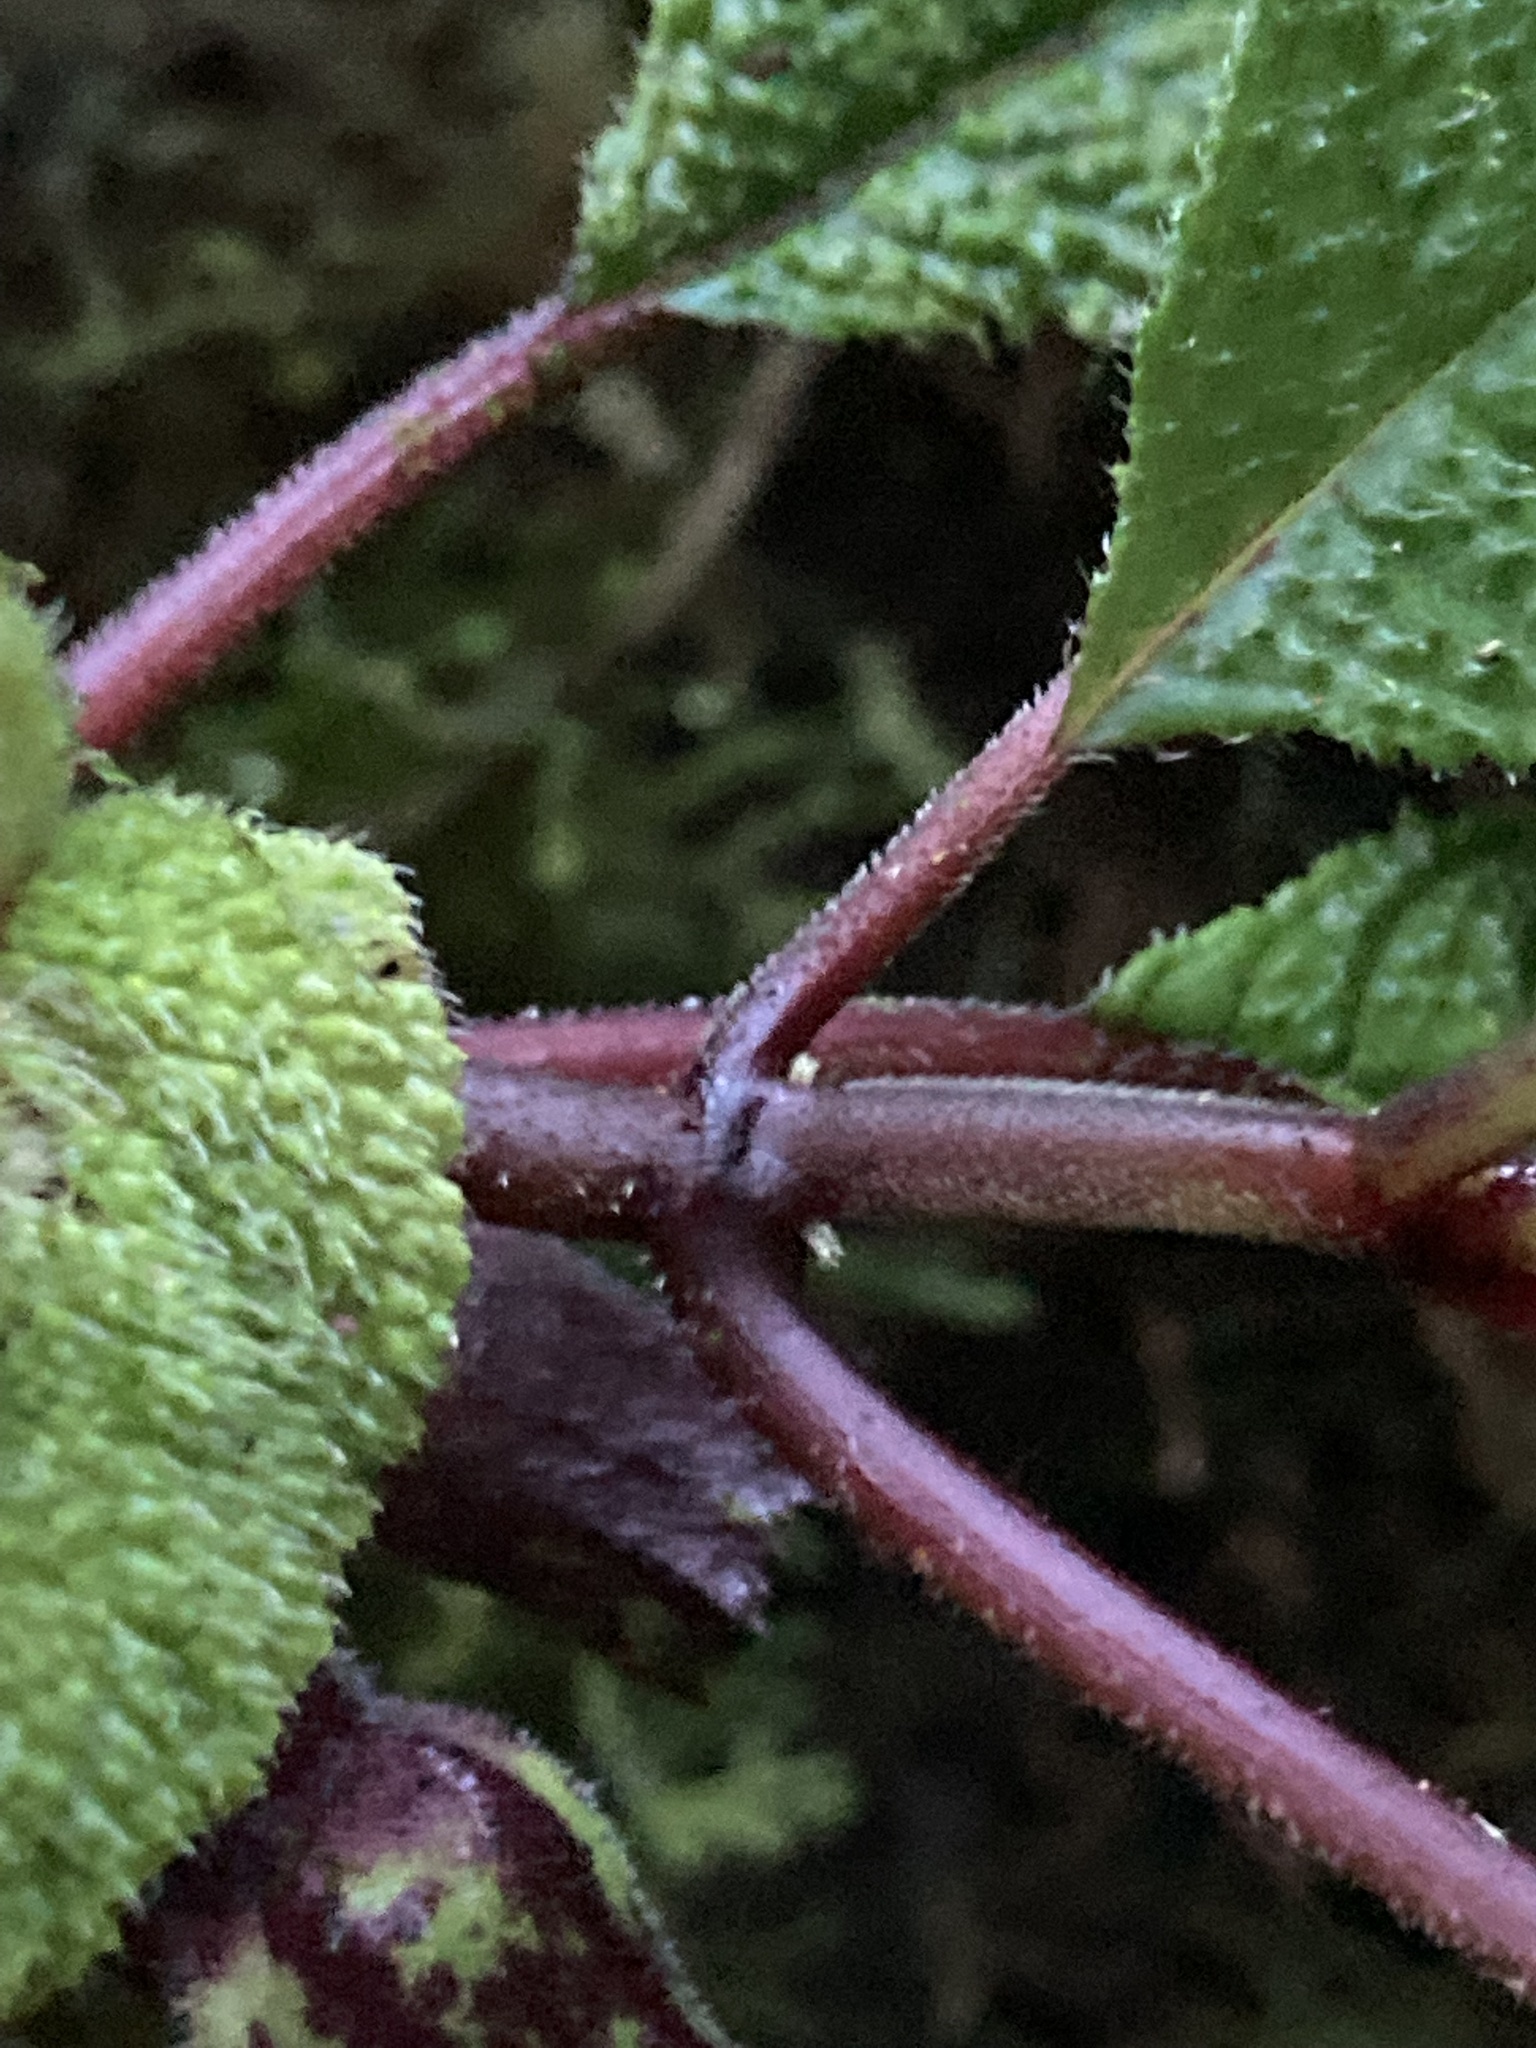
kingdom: Plantae
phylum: Tracheophyta
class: Magnoliopsida
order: Lamiales
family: Gesneriaceae
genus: Solenophora
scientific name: Solenophora obscura
